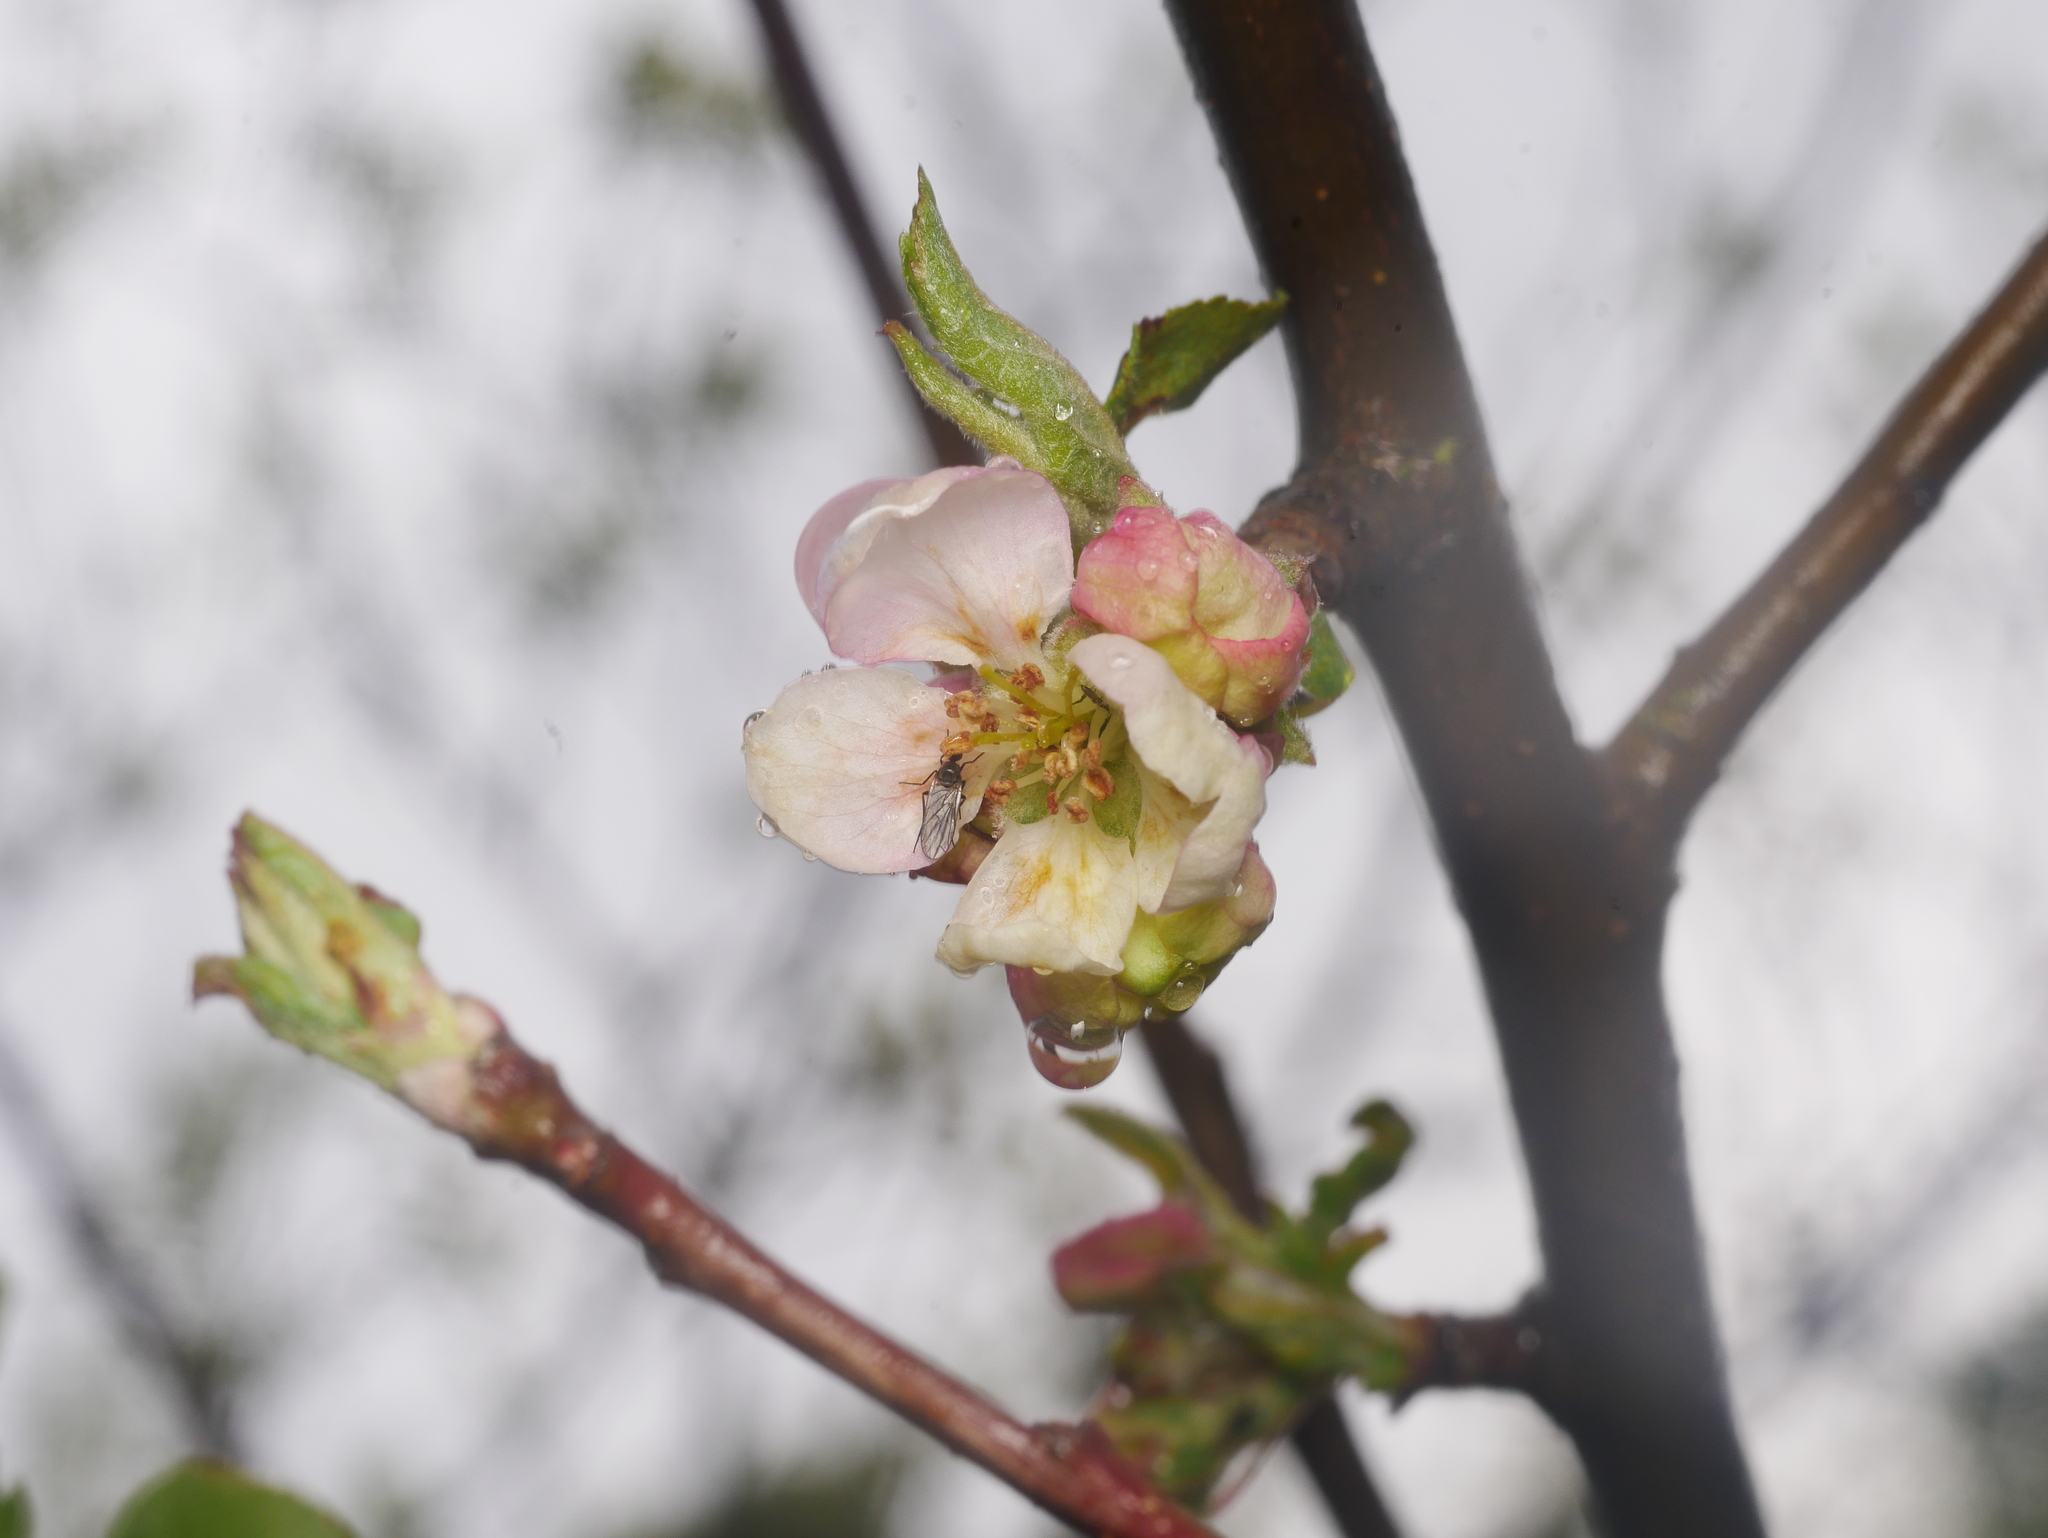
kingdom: Plantae
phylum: Tracheophyta
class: Magnoliopsida
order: Rosales
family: Rosaceae
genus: Prunus
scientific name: Prunus persica
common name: Peach
